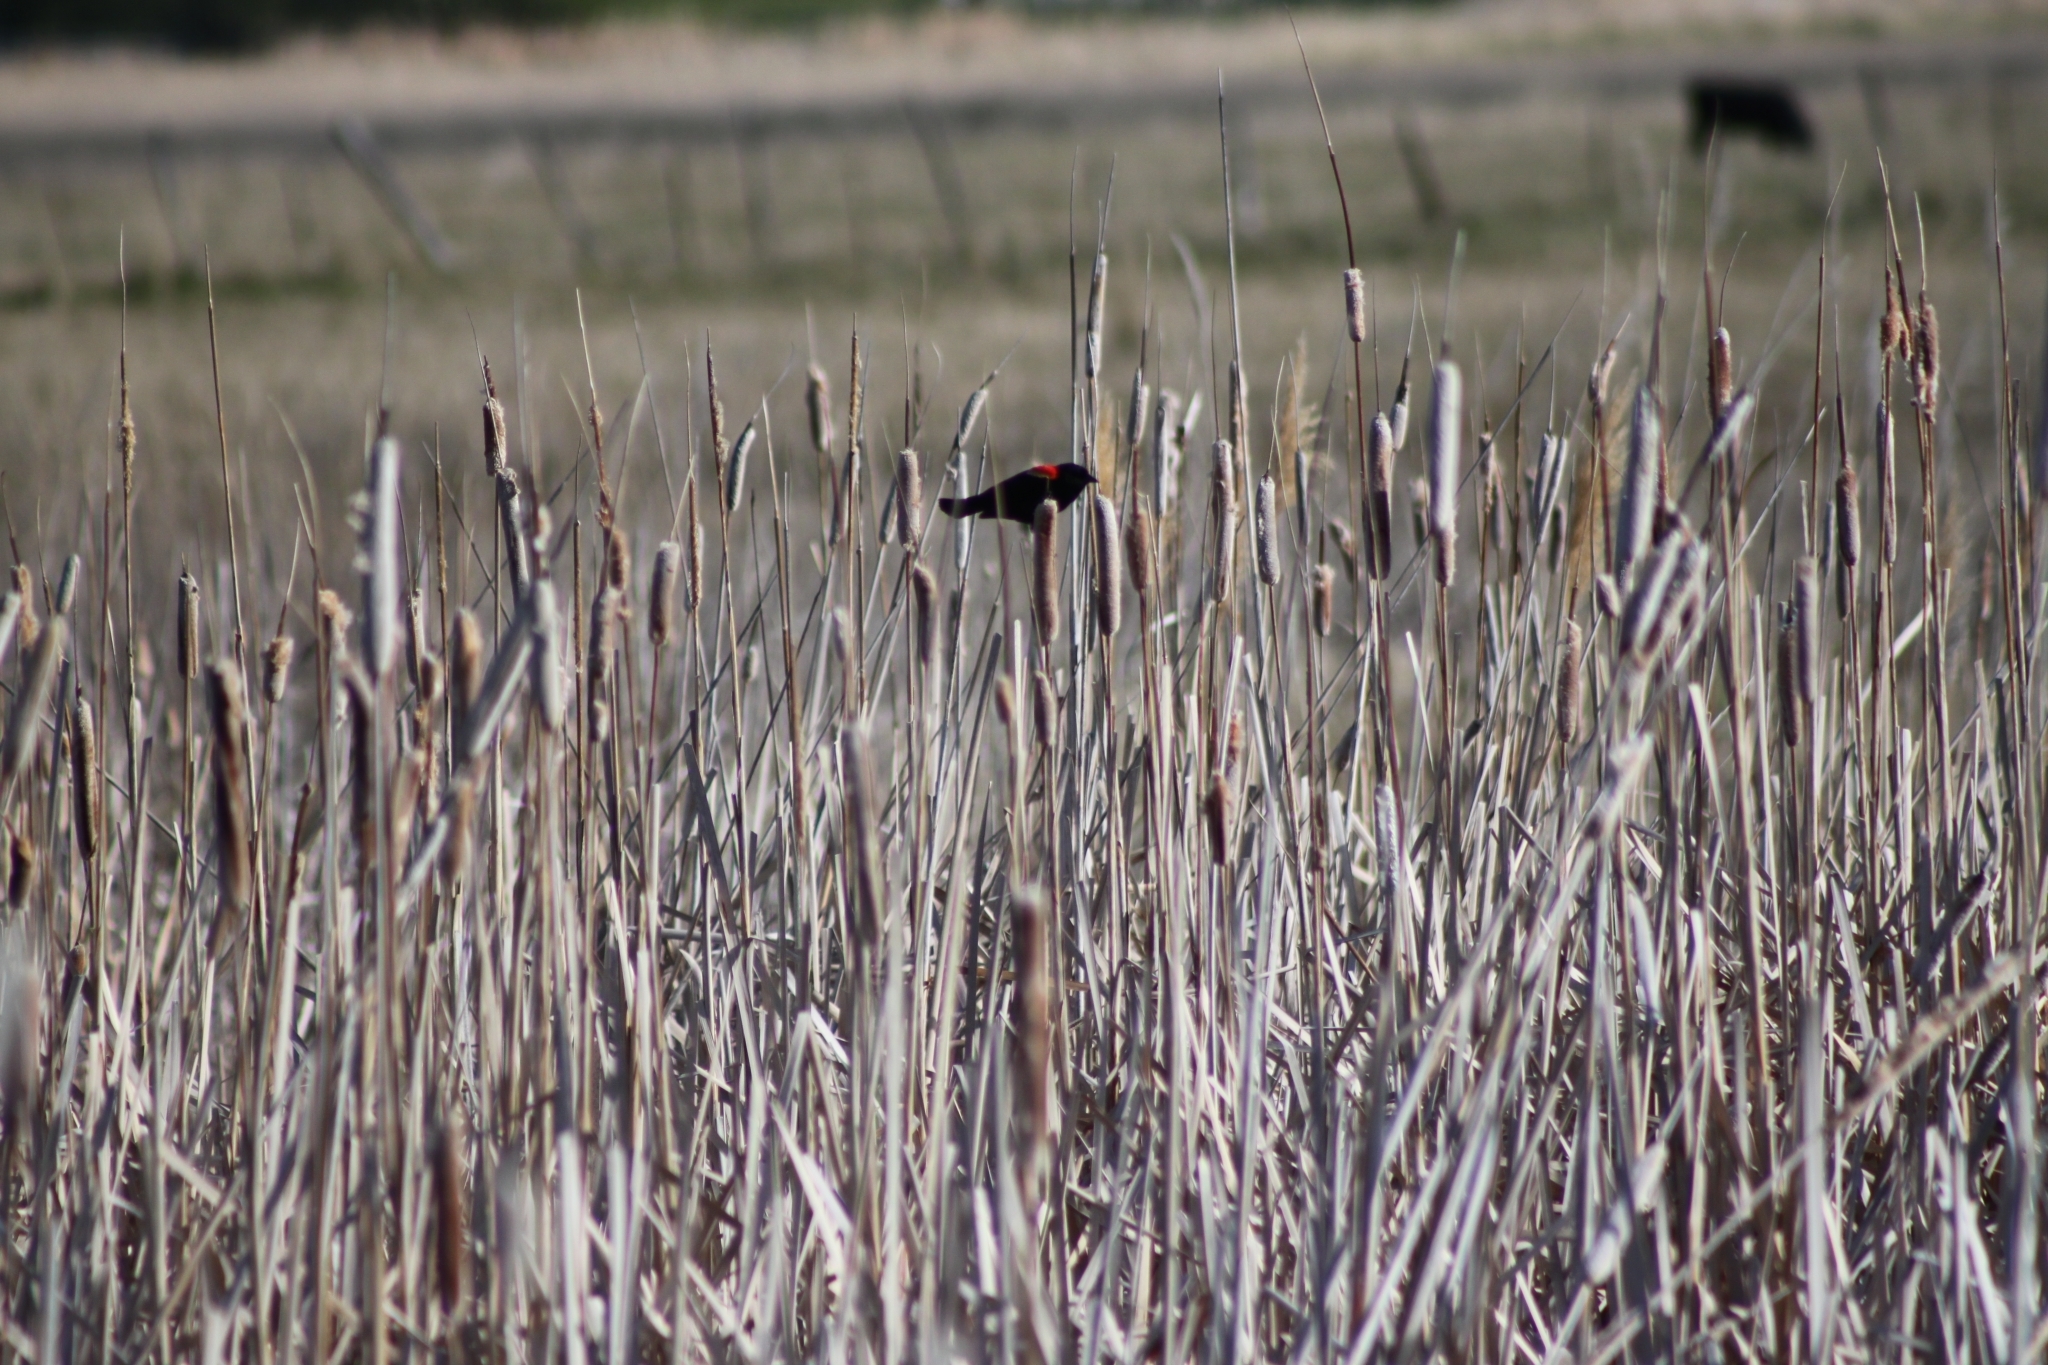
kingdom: Animalia
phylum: Chordata
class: Aves
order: Passeriformes
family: Icteridae
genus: Agelaius
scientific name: Agelaius phoeniceus
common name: Red-winged blackbird
